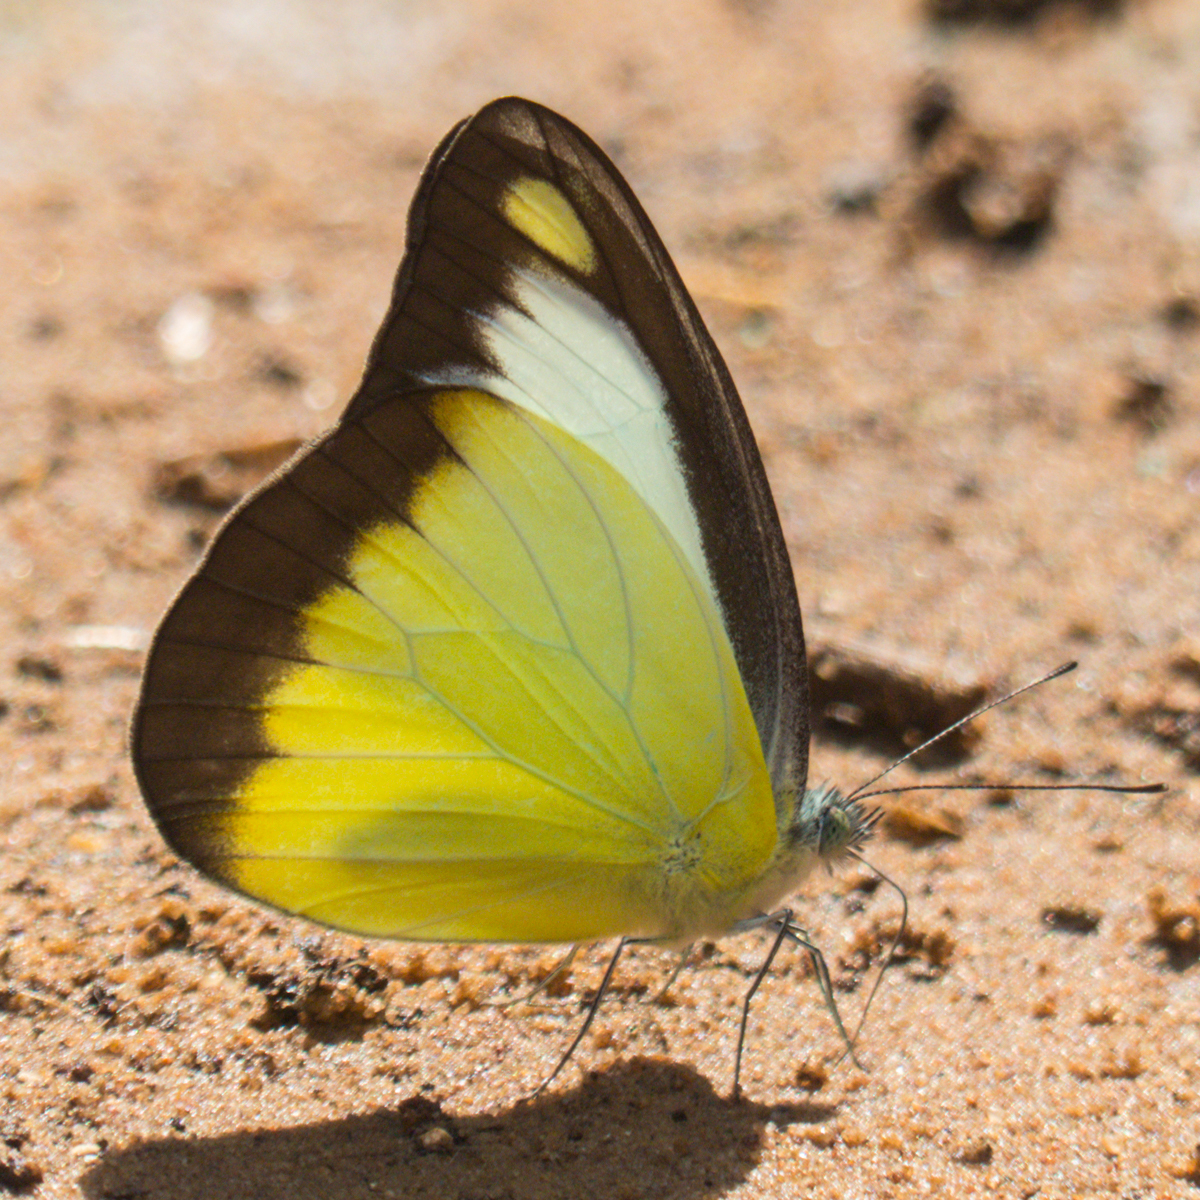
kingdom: Animalia
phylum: Arthropoda
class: Insecta
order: Lepidoptera
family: Pieridae
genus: Appias
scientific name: Appias lyncida
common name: Chocolate albatross
